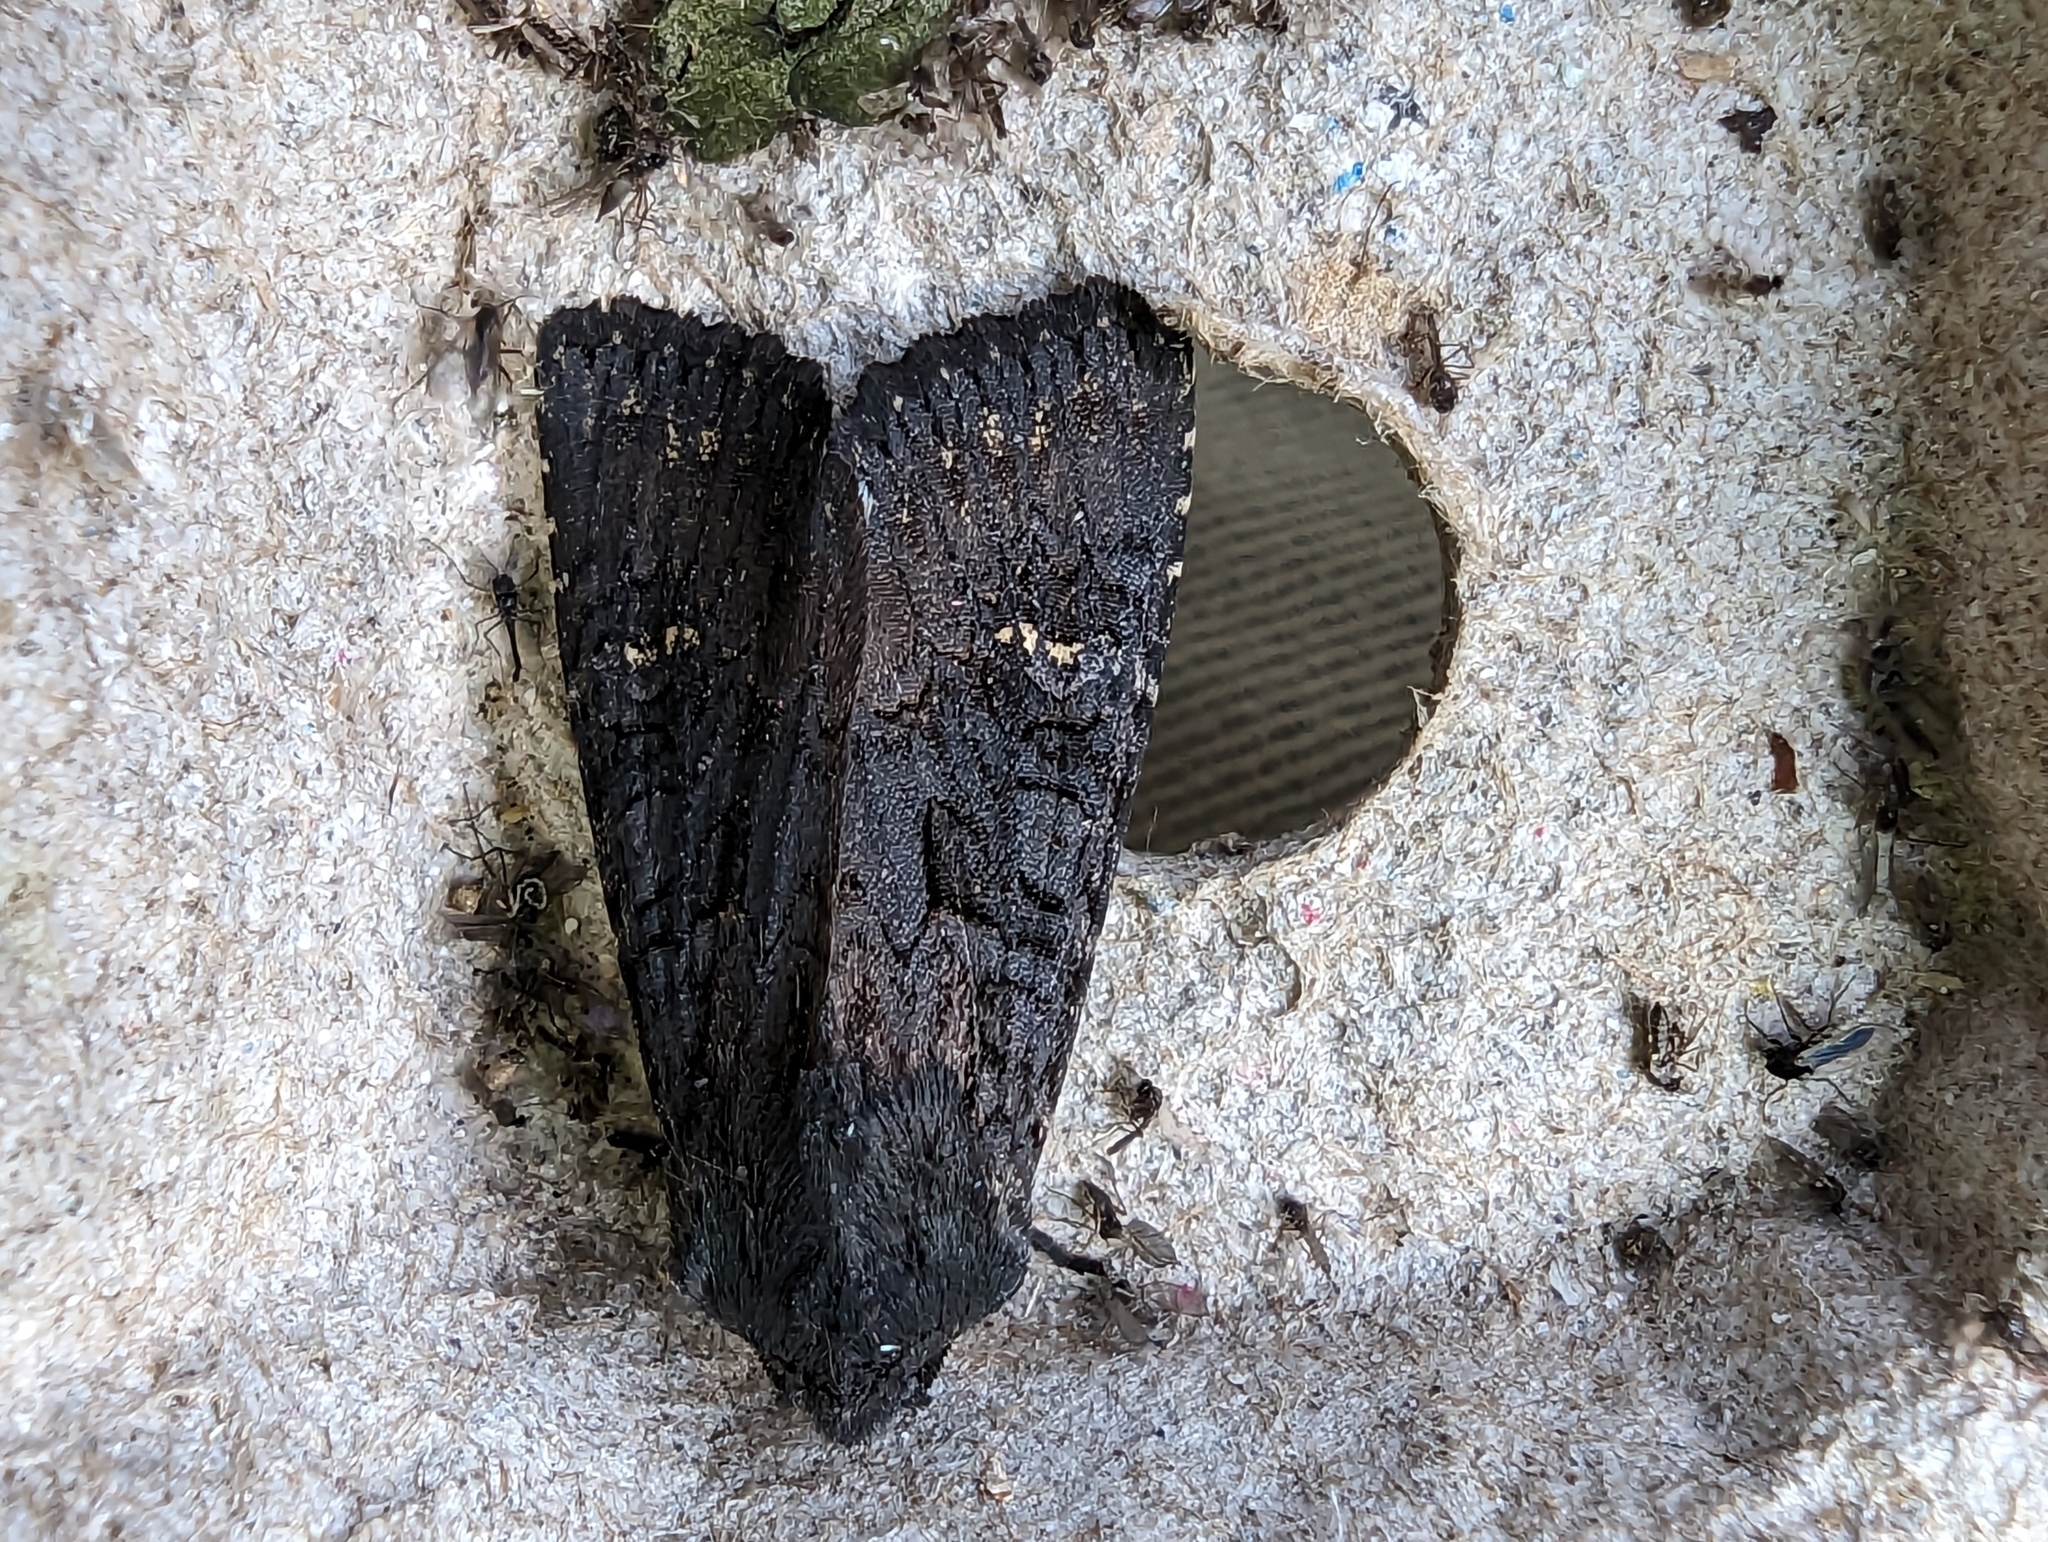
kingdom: Animalia
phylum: Arthropoda
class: Insecta
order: Lepidoptera
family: Noctuidae
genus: Aporophyla
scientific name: Aporophyla nigra
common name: Black rustic
